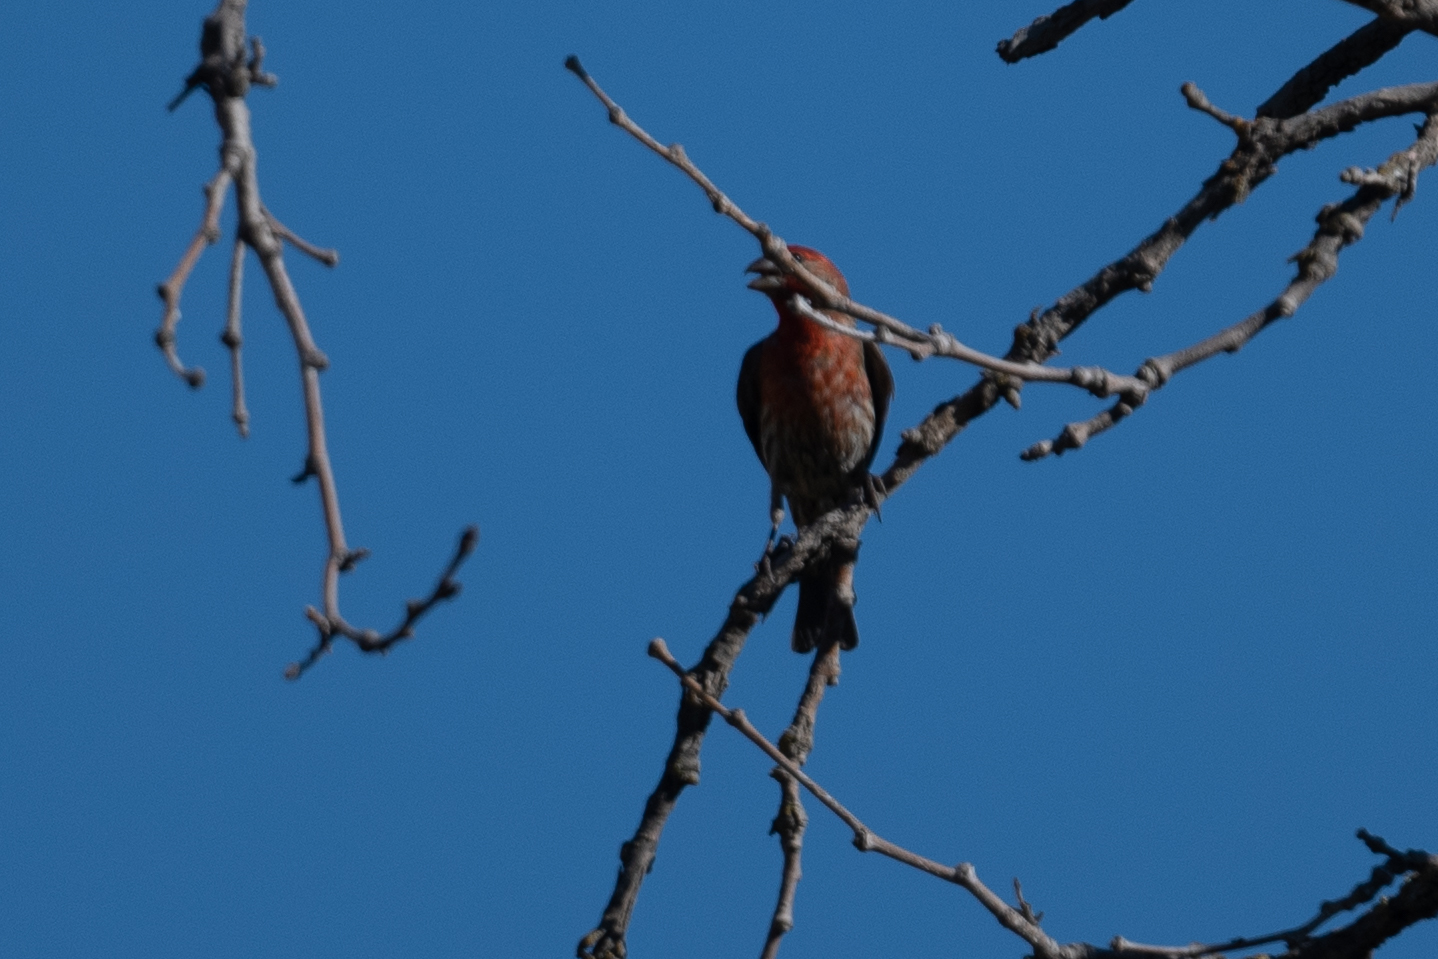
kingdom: Animalia
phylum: Chordata
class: Aves
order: Passeriformes
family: Fringillidae
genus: Haemorhous
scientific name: Haemorhous mexicanus
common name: House finch
